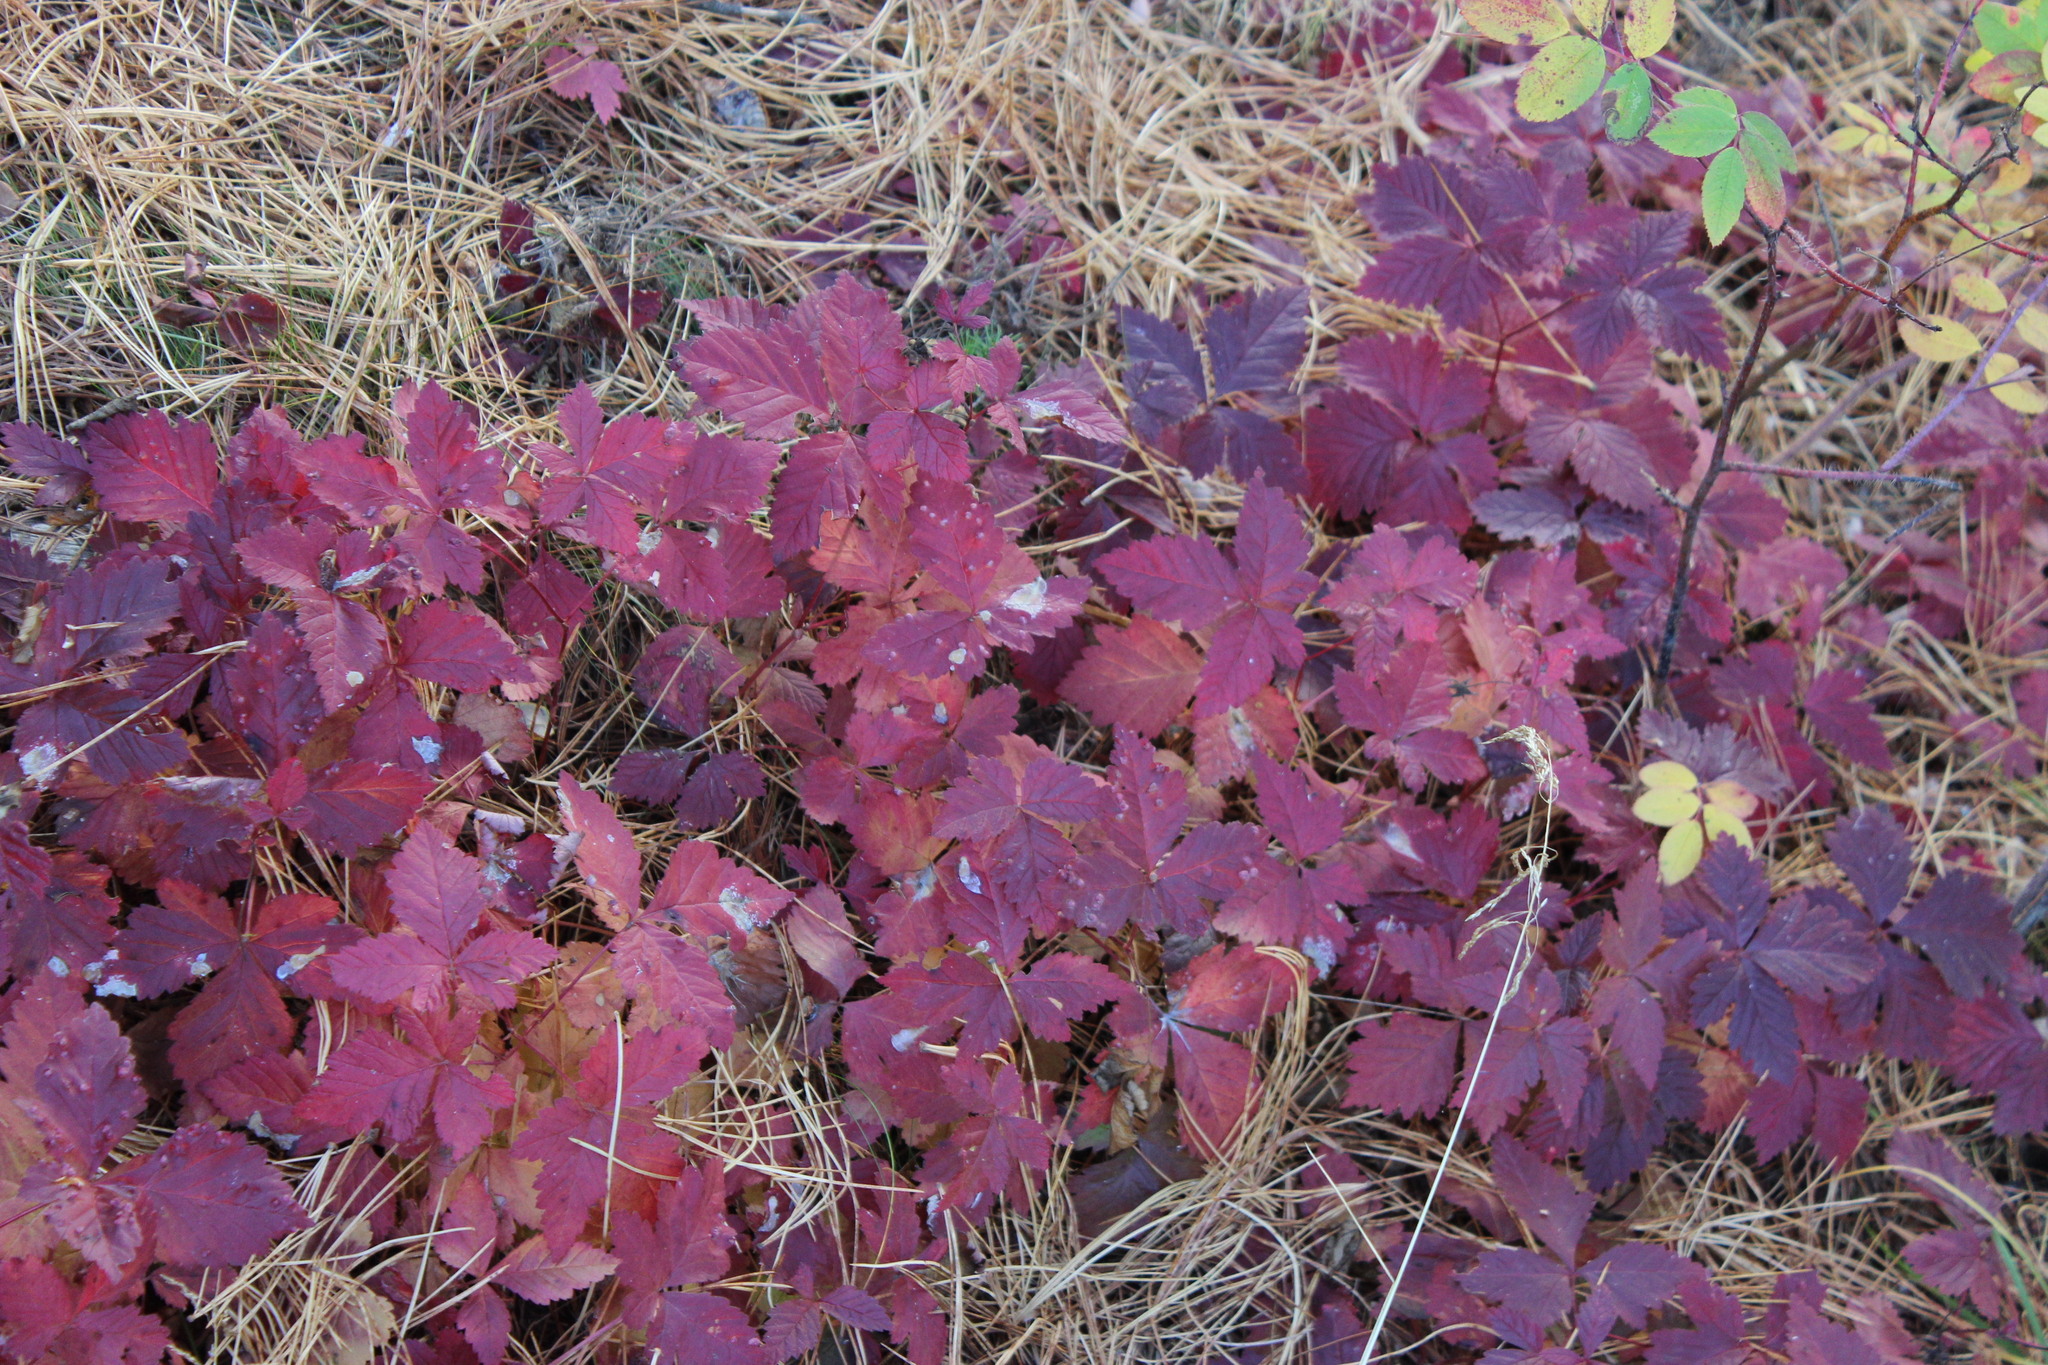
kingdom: Plantae
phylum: Tracheophyta
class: Magnoliopsida
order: Rosales
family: Rosaceae
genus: Rubus
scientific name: Rubus arcticus
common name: Arctic bramble
